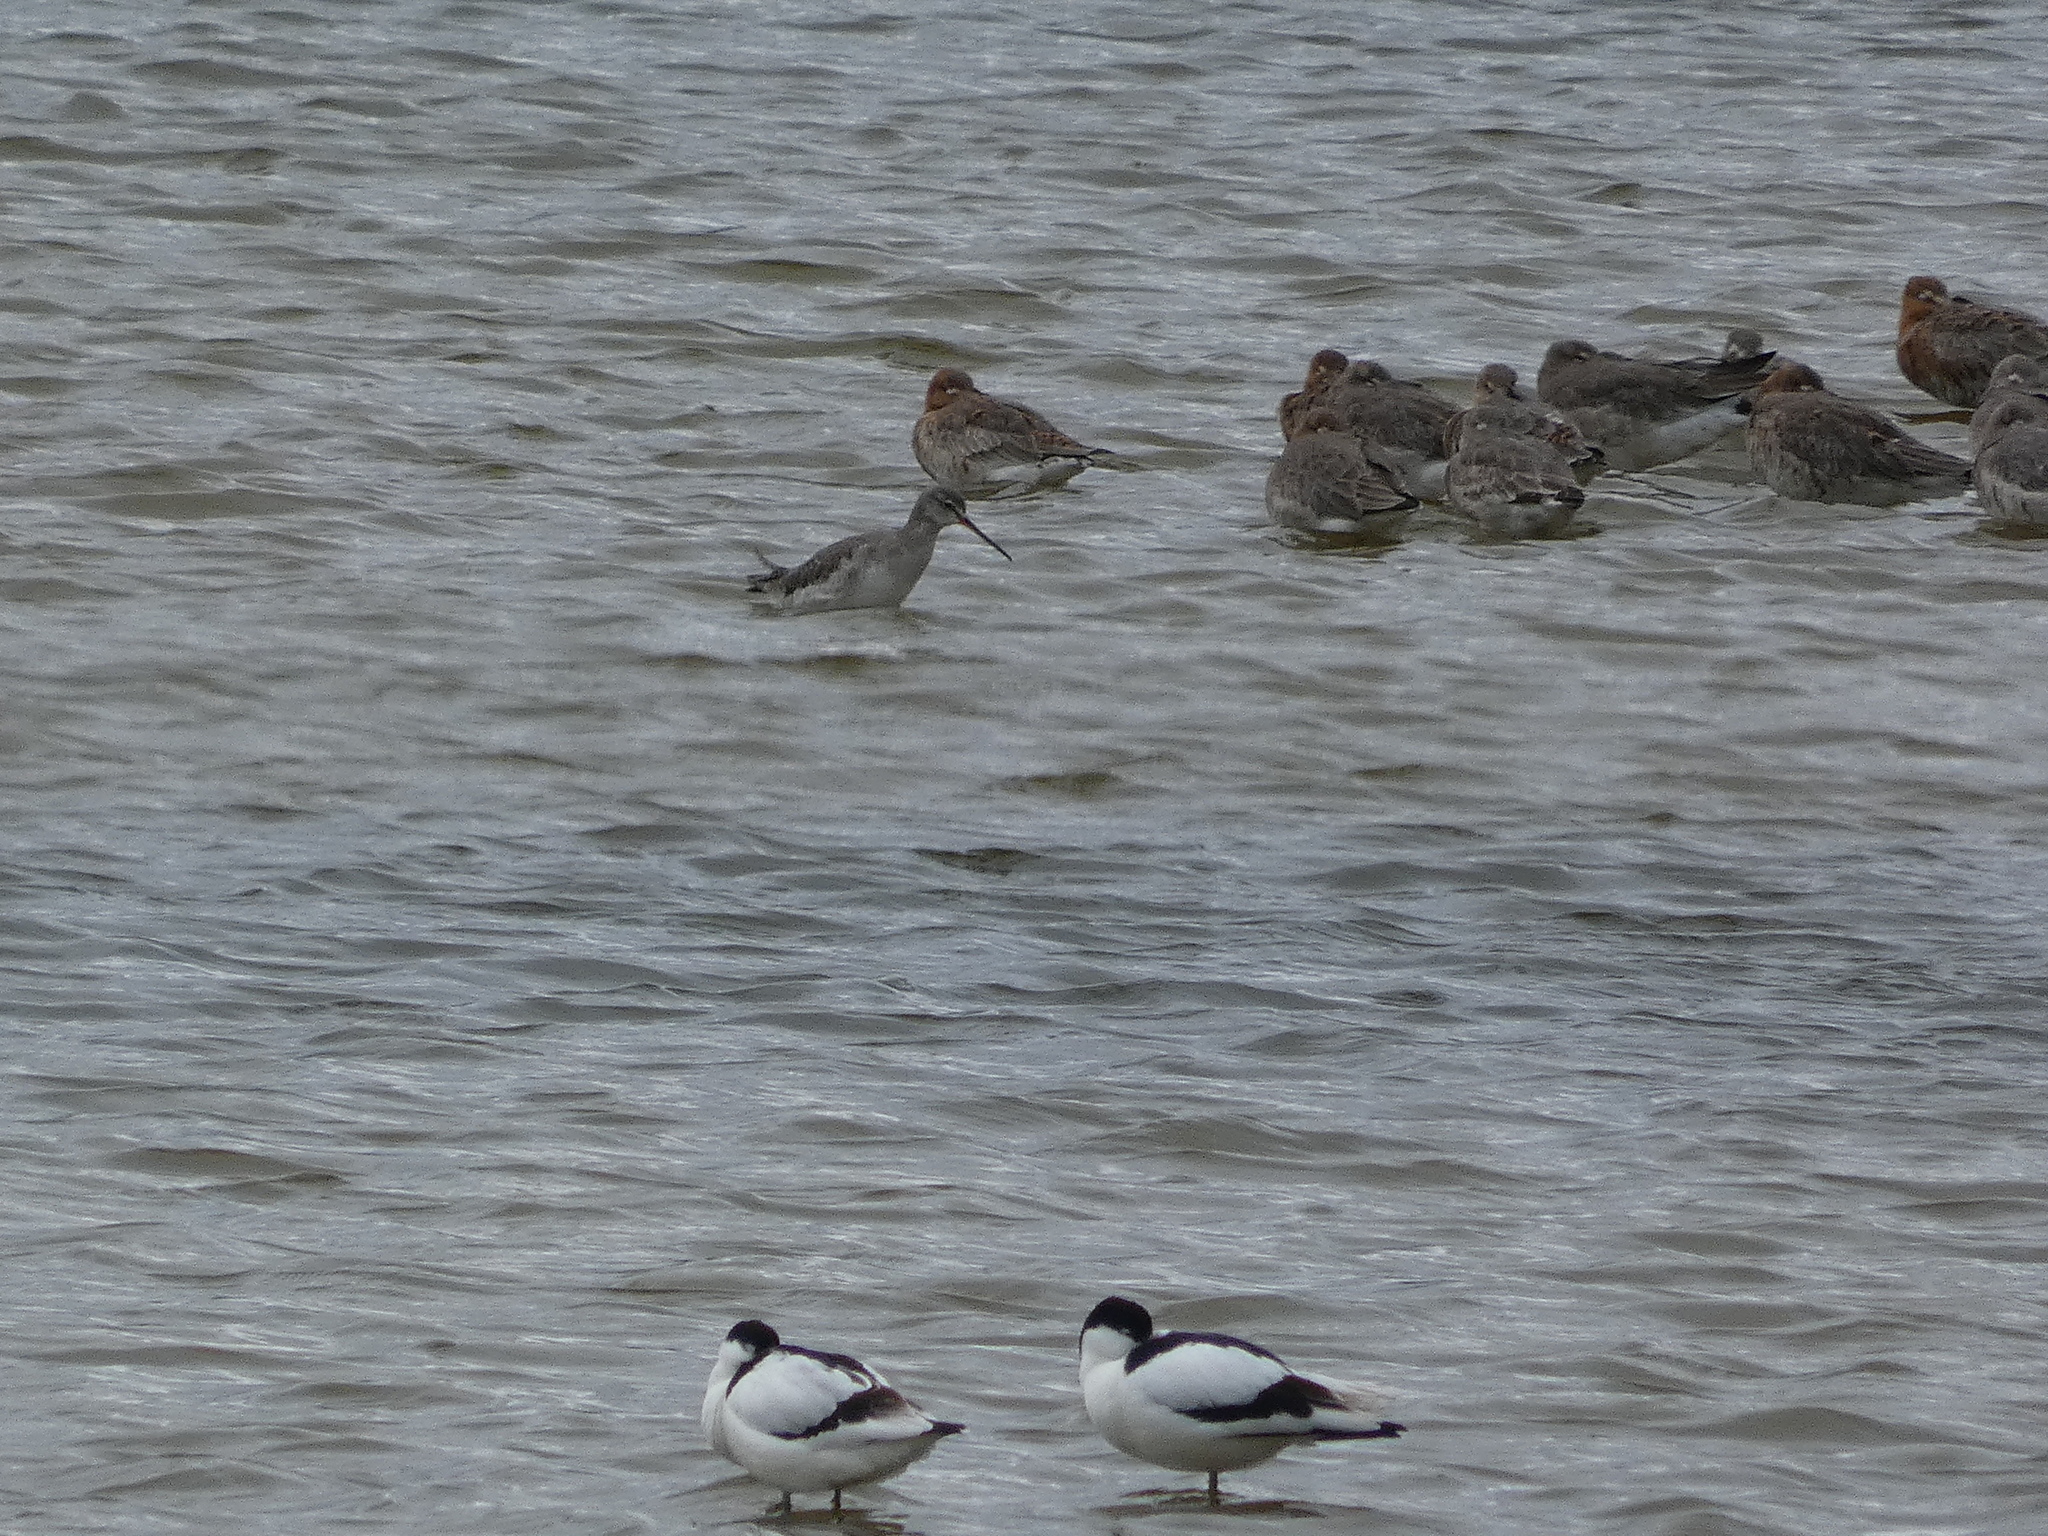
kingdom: Animalia
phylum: Chordata
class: Aves
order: Charadriiformes
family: Recurvirostridae
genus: Recurvirostra
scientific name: Recurvirostra avosetta
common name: Pied avocet
